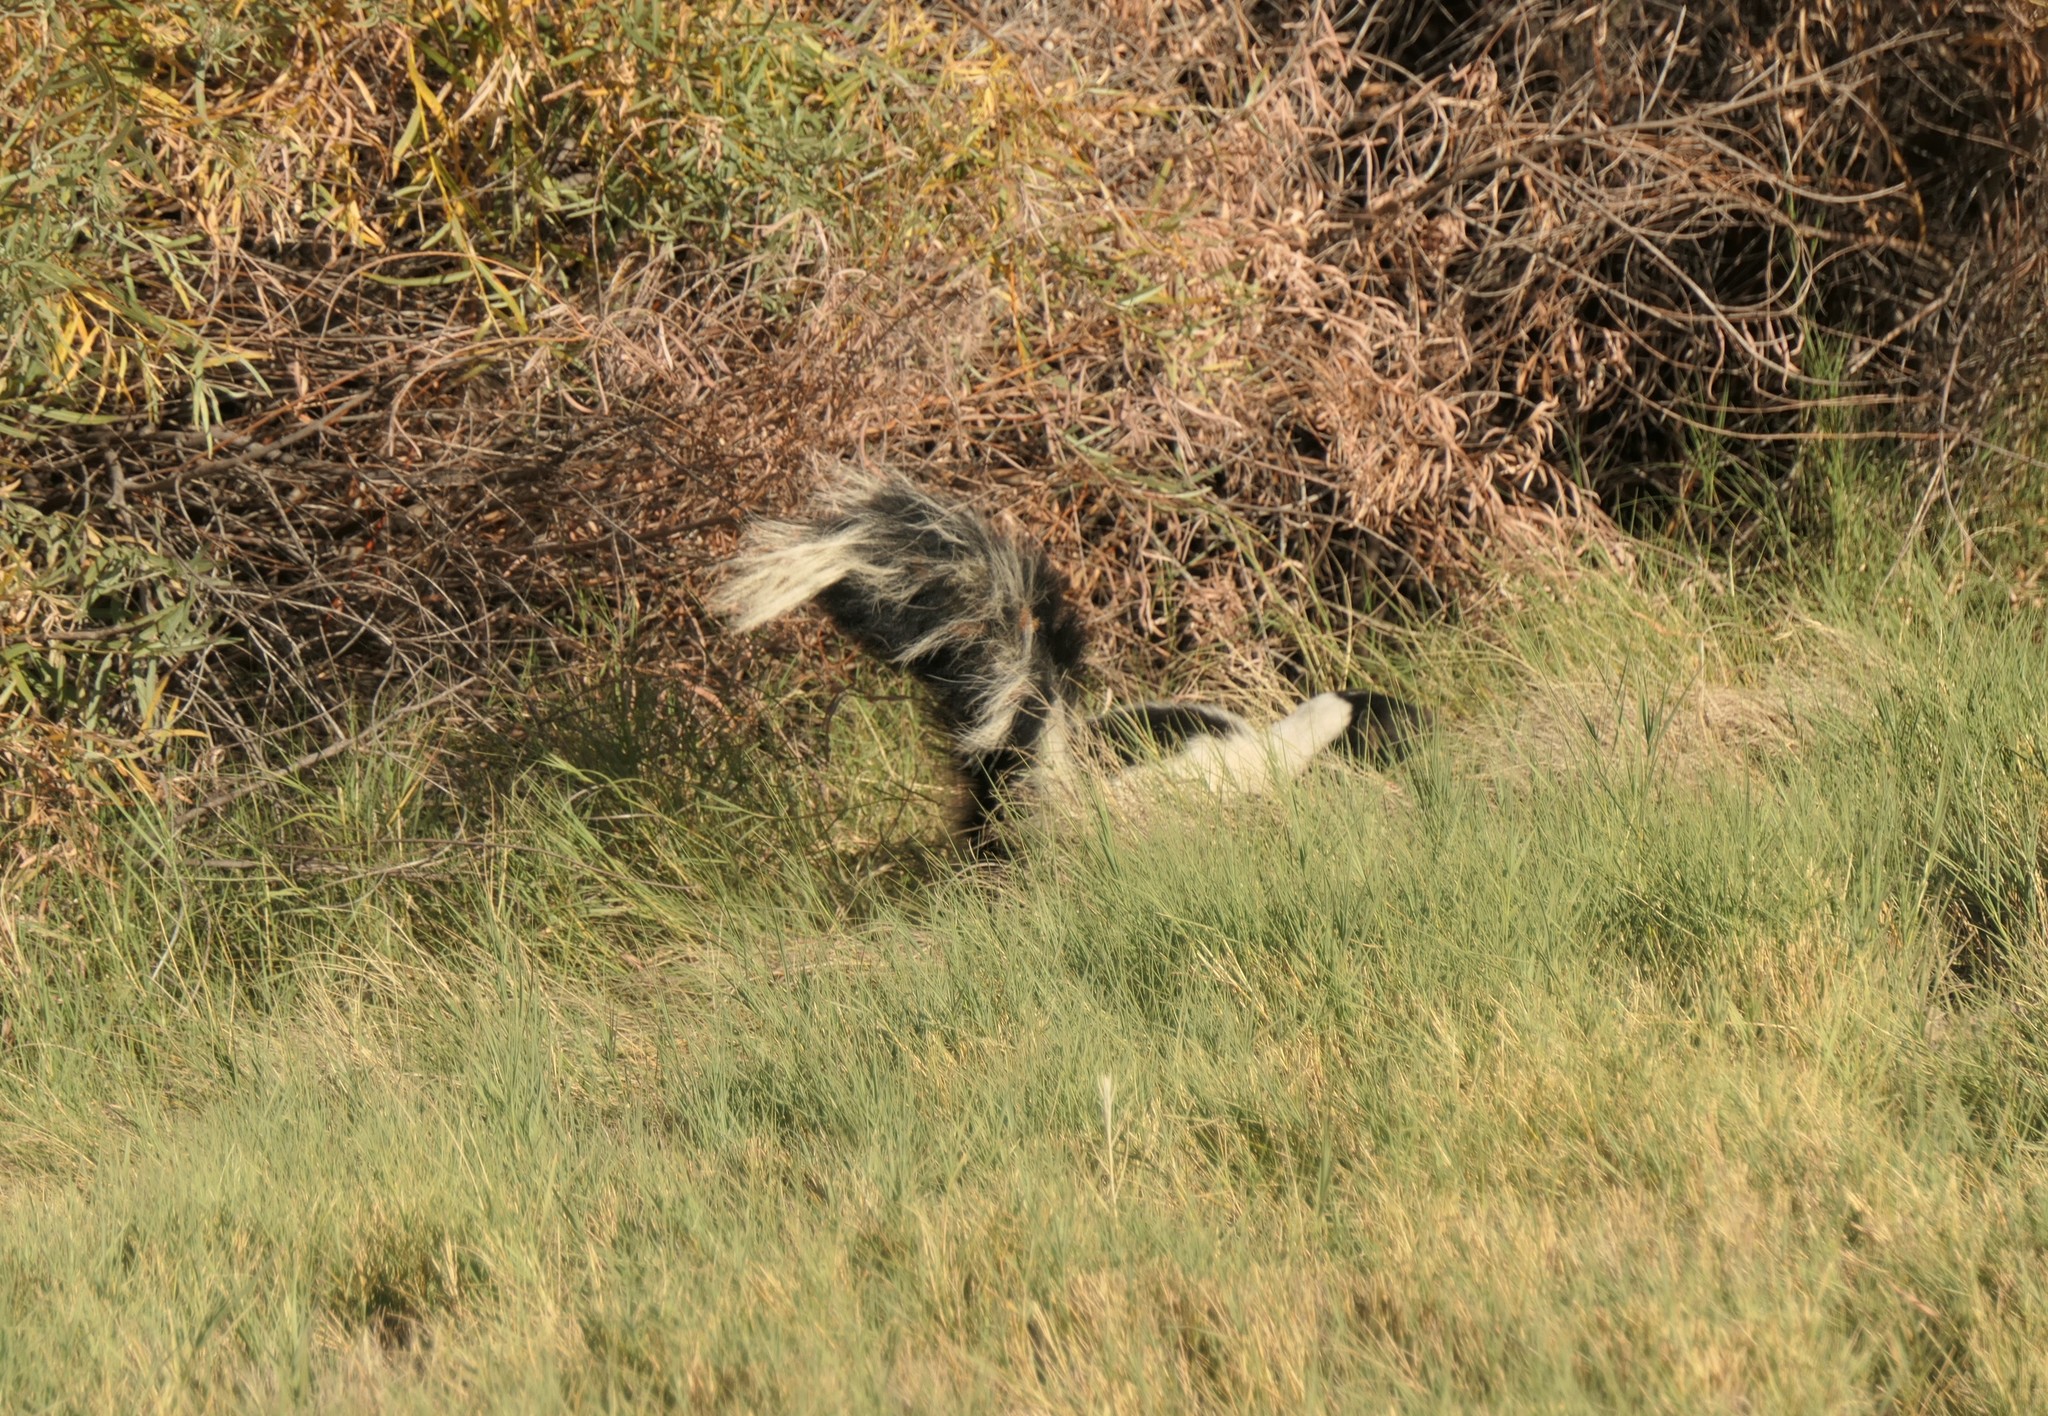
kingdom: Animalia
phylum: Chordata
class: Mammalia
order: Carnivora
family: Mephitidae
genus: Mephitis
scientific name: Mephitis mephitis
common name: Striped skunk
